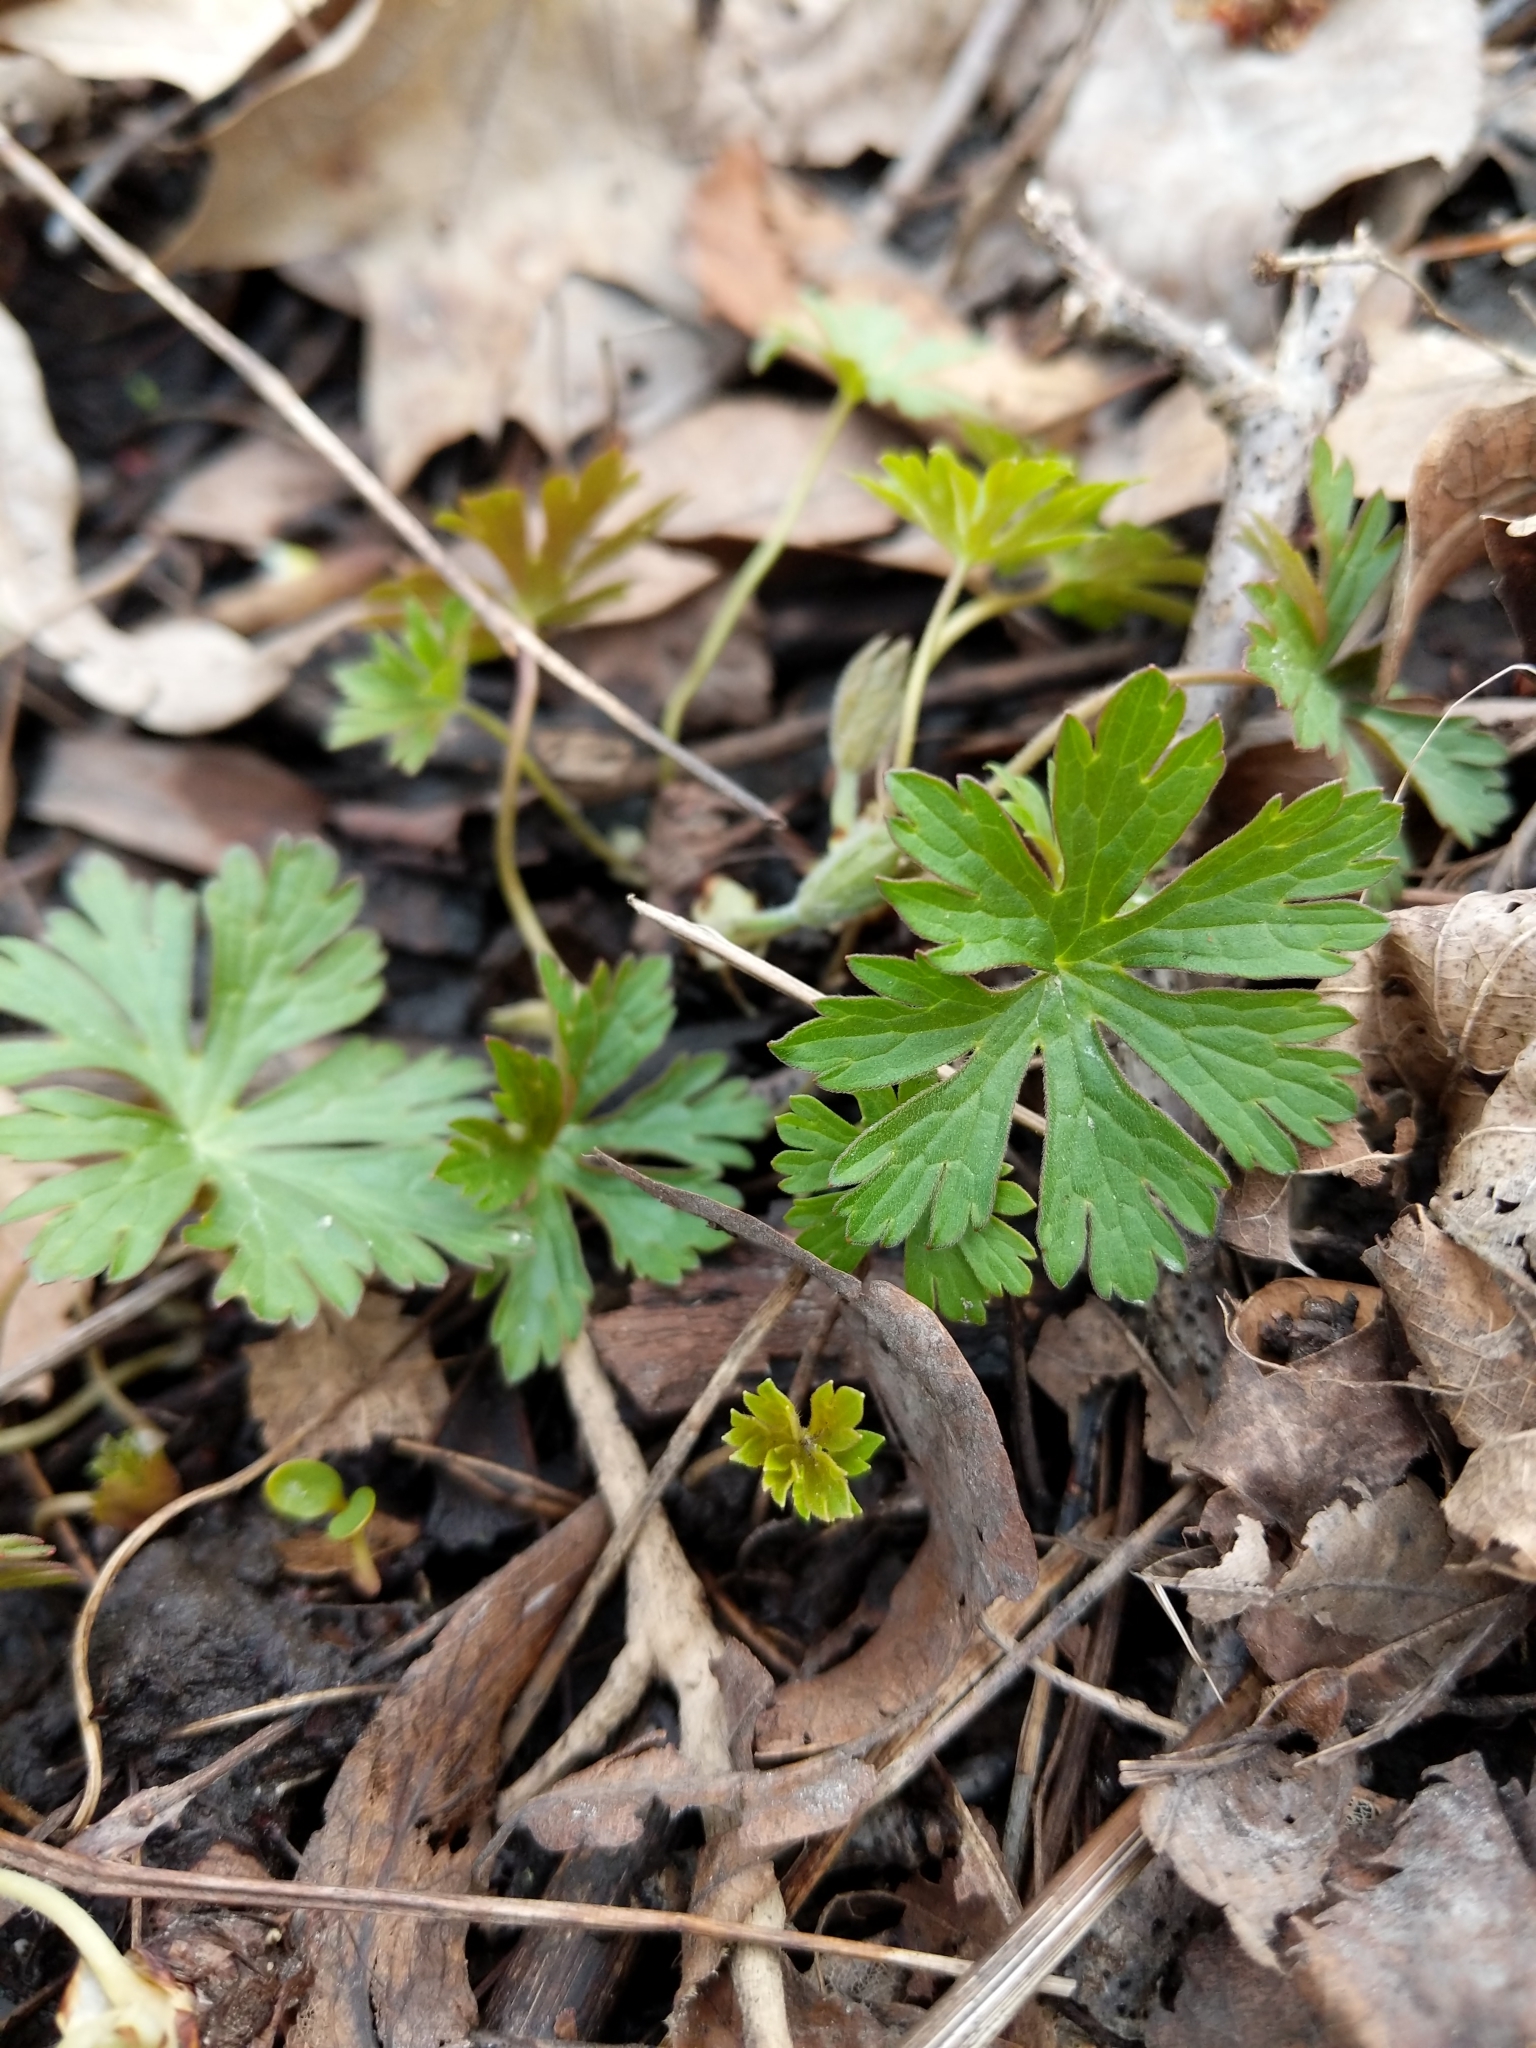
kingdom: Plantae
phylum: Tracheophyta
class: Magnoliopsida
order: Geraniales
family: Geraniaceae
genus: Geranium
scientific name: Geranium maculatum
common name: Spotted geranium
